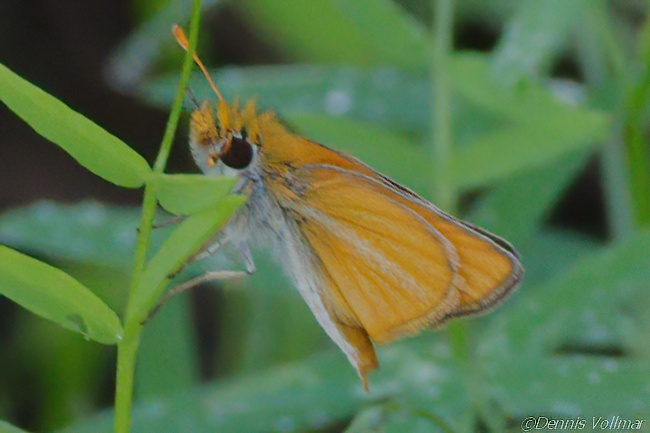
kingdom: Animalia
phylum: Arthropoda
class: Insecta
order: Lepidoptera
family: Hesperiidae
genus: Copaeodes
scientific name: Copaeodes minima
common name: Southern skipperling
